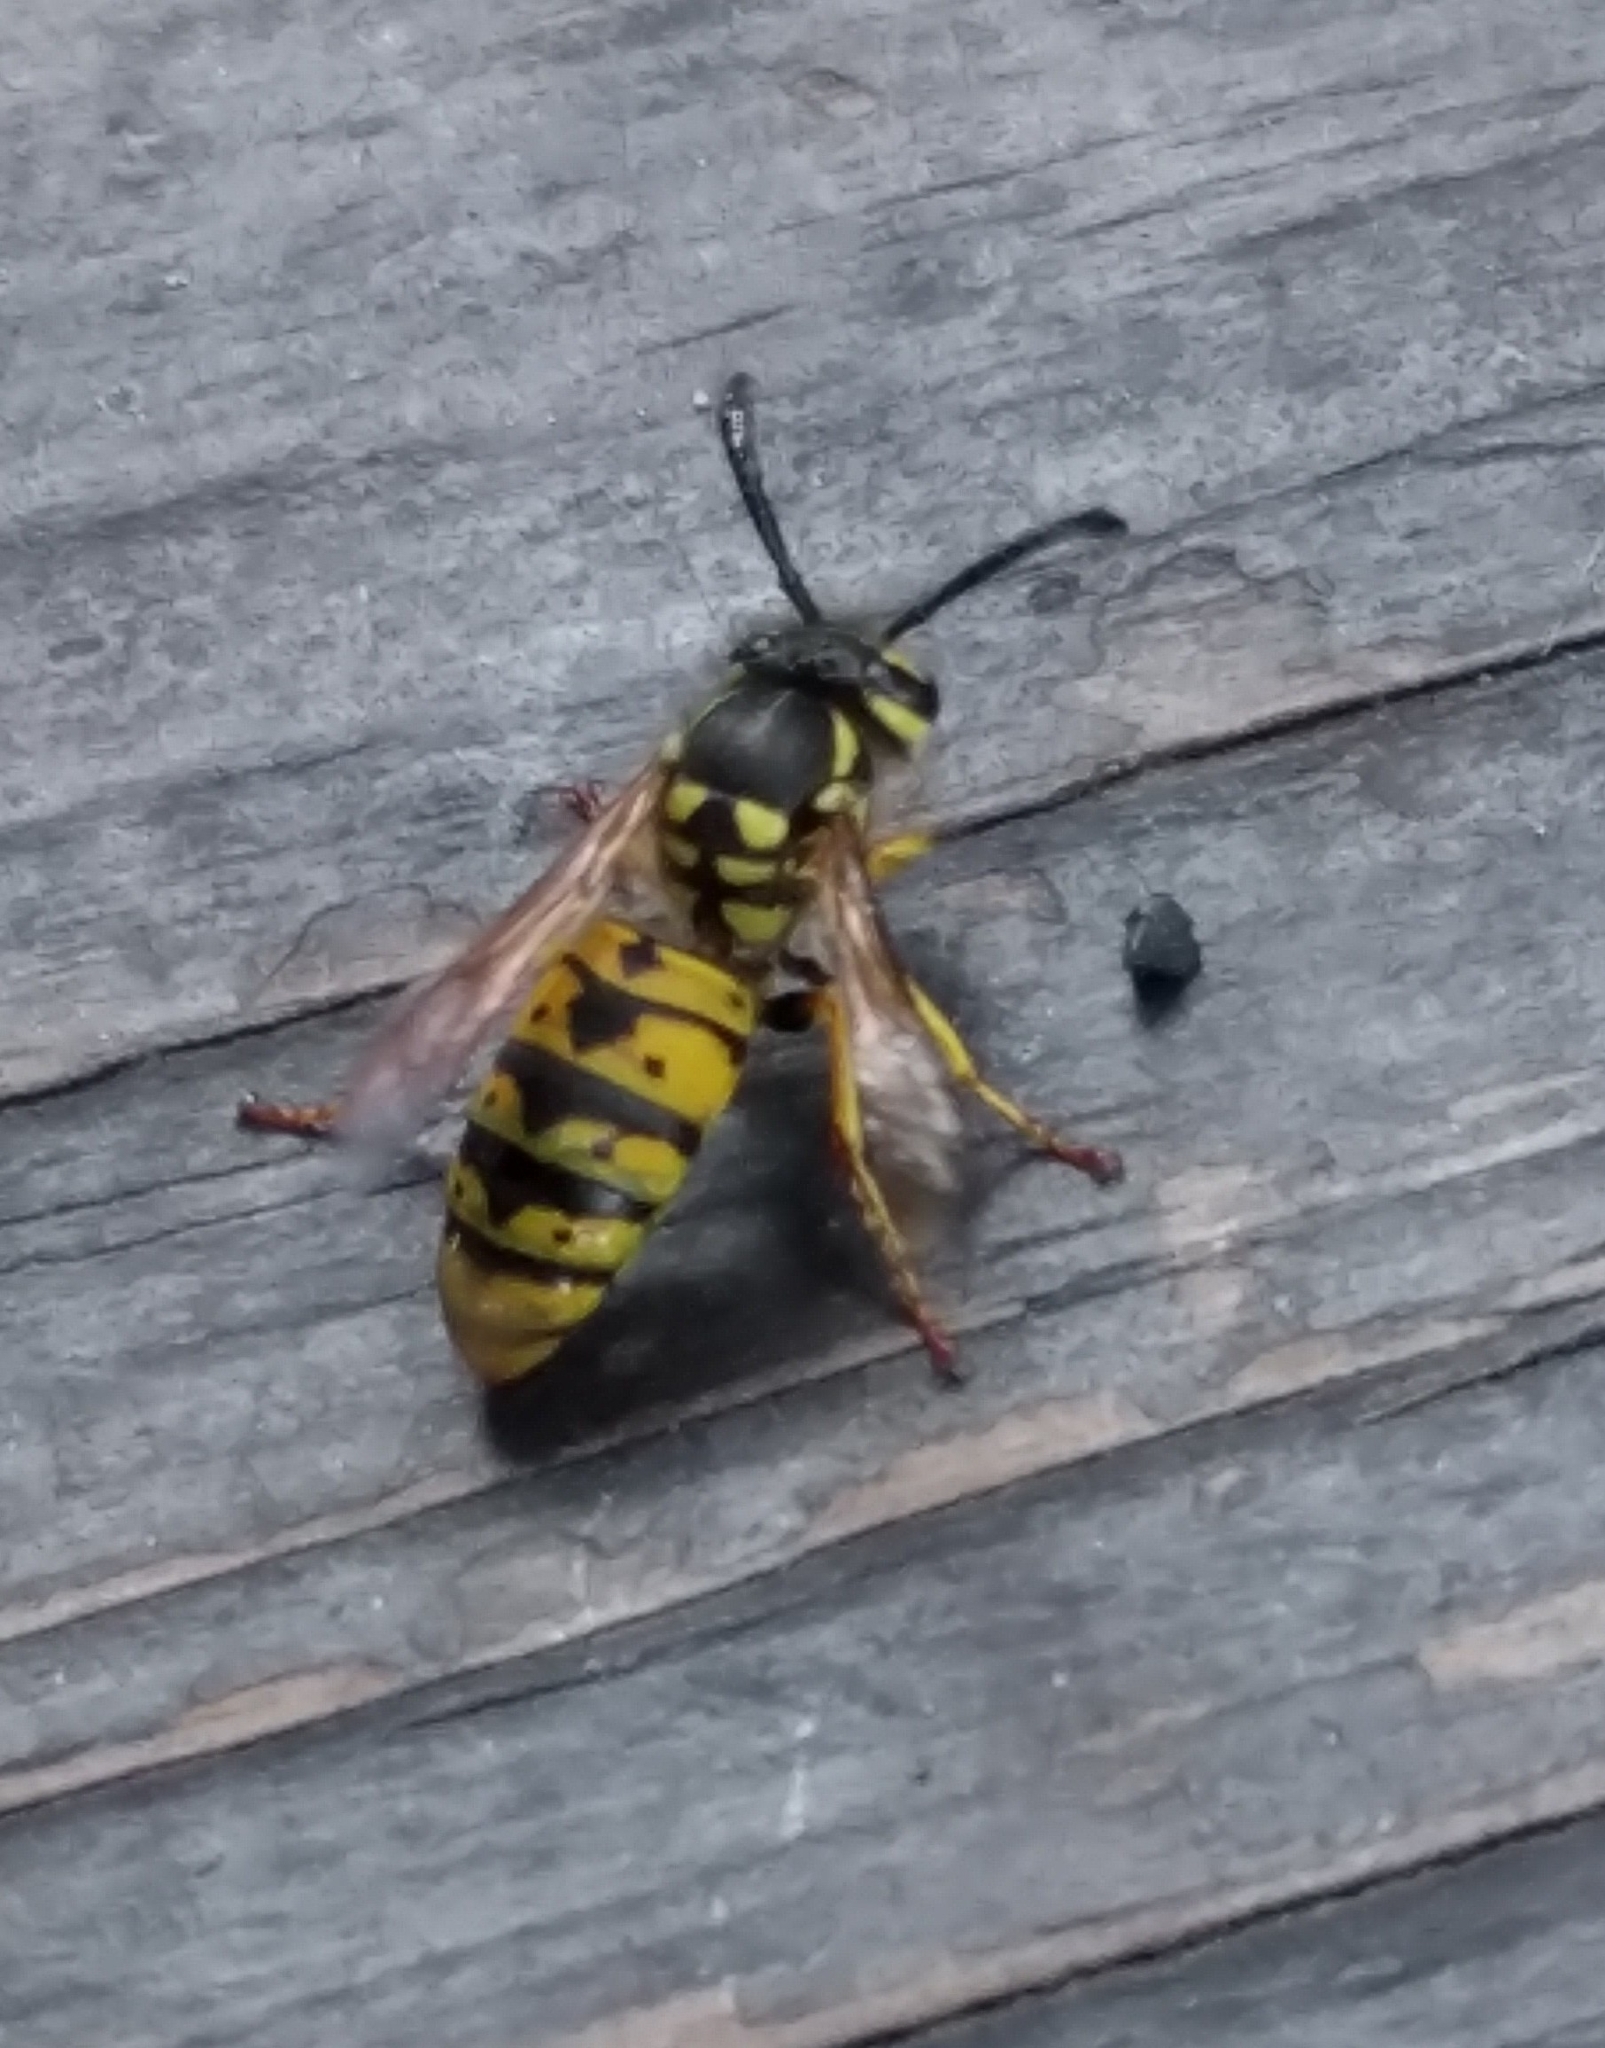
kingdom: Animalia
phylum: Arthropoda
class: Insecta
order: Hymenoptera
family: Vespidae
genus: Vespula
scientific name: Vespula germanica
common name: German wasp
